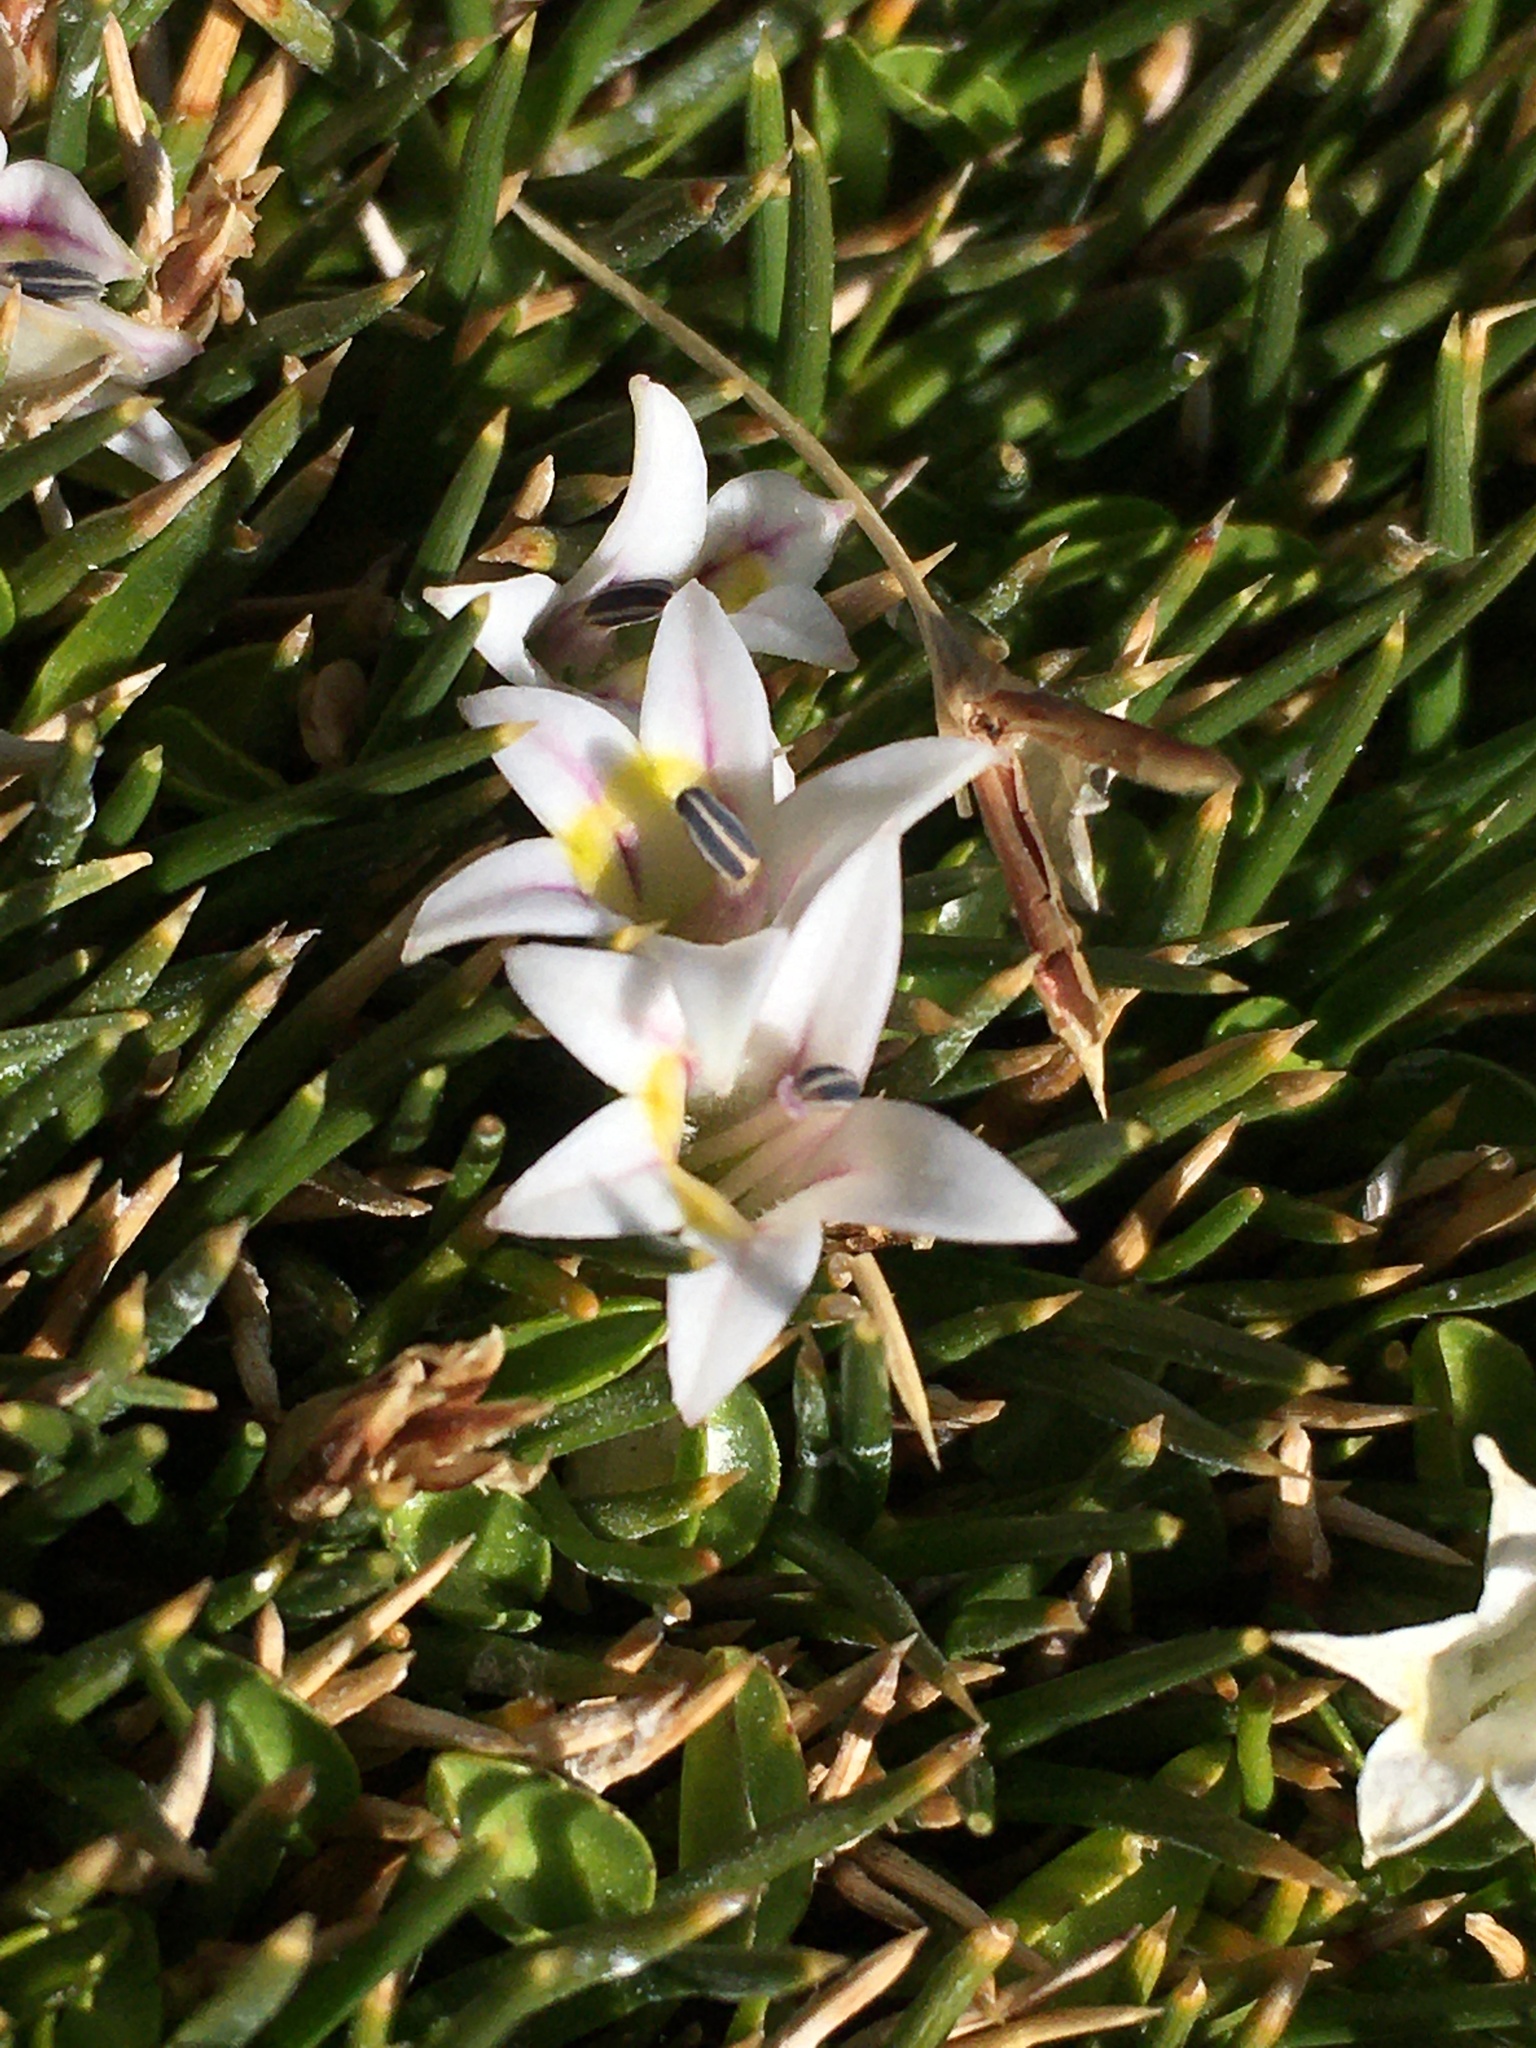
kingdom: Plantae
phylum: Tracheophyta
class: Magnoliopsida
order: Asterales
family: Campanulaceae
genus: Lobelia
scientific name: Lobelia oligophylla
